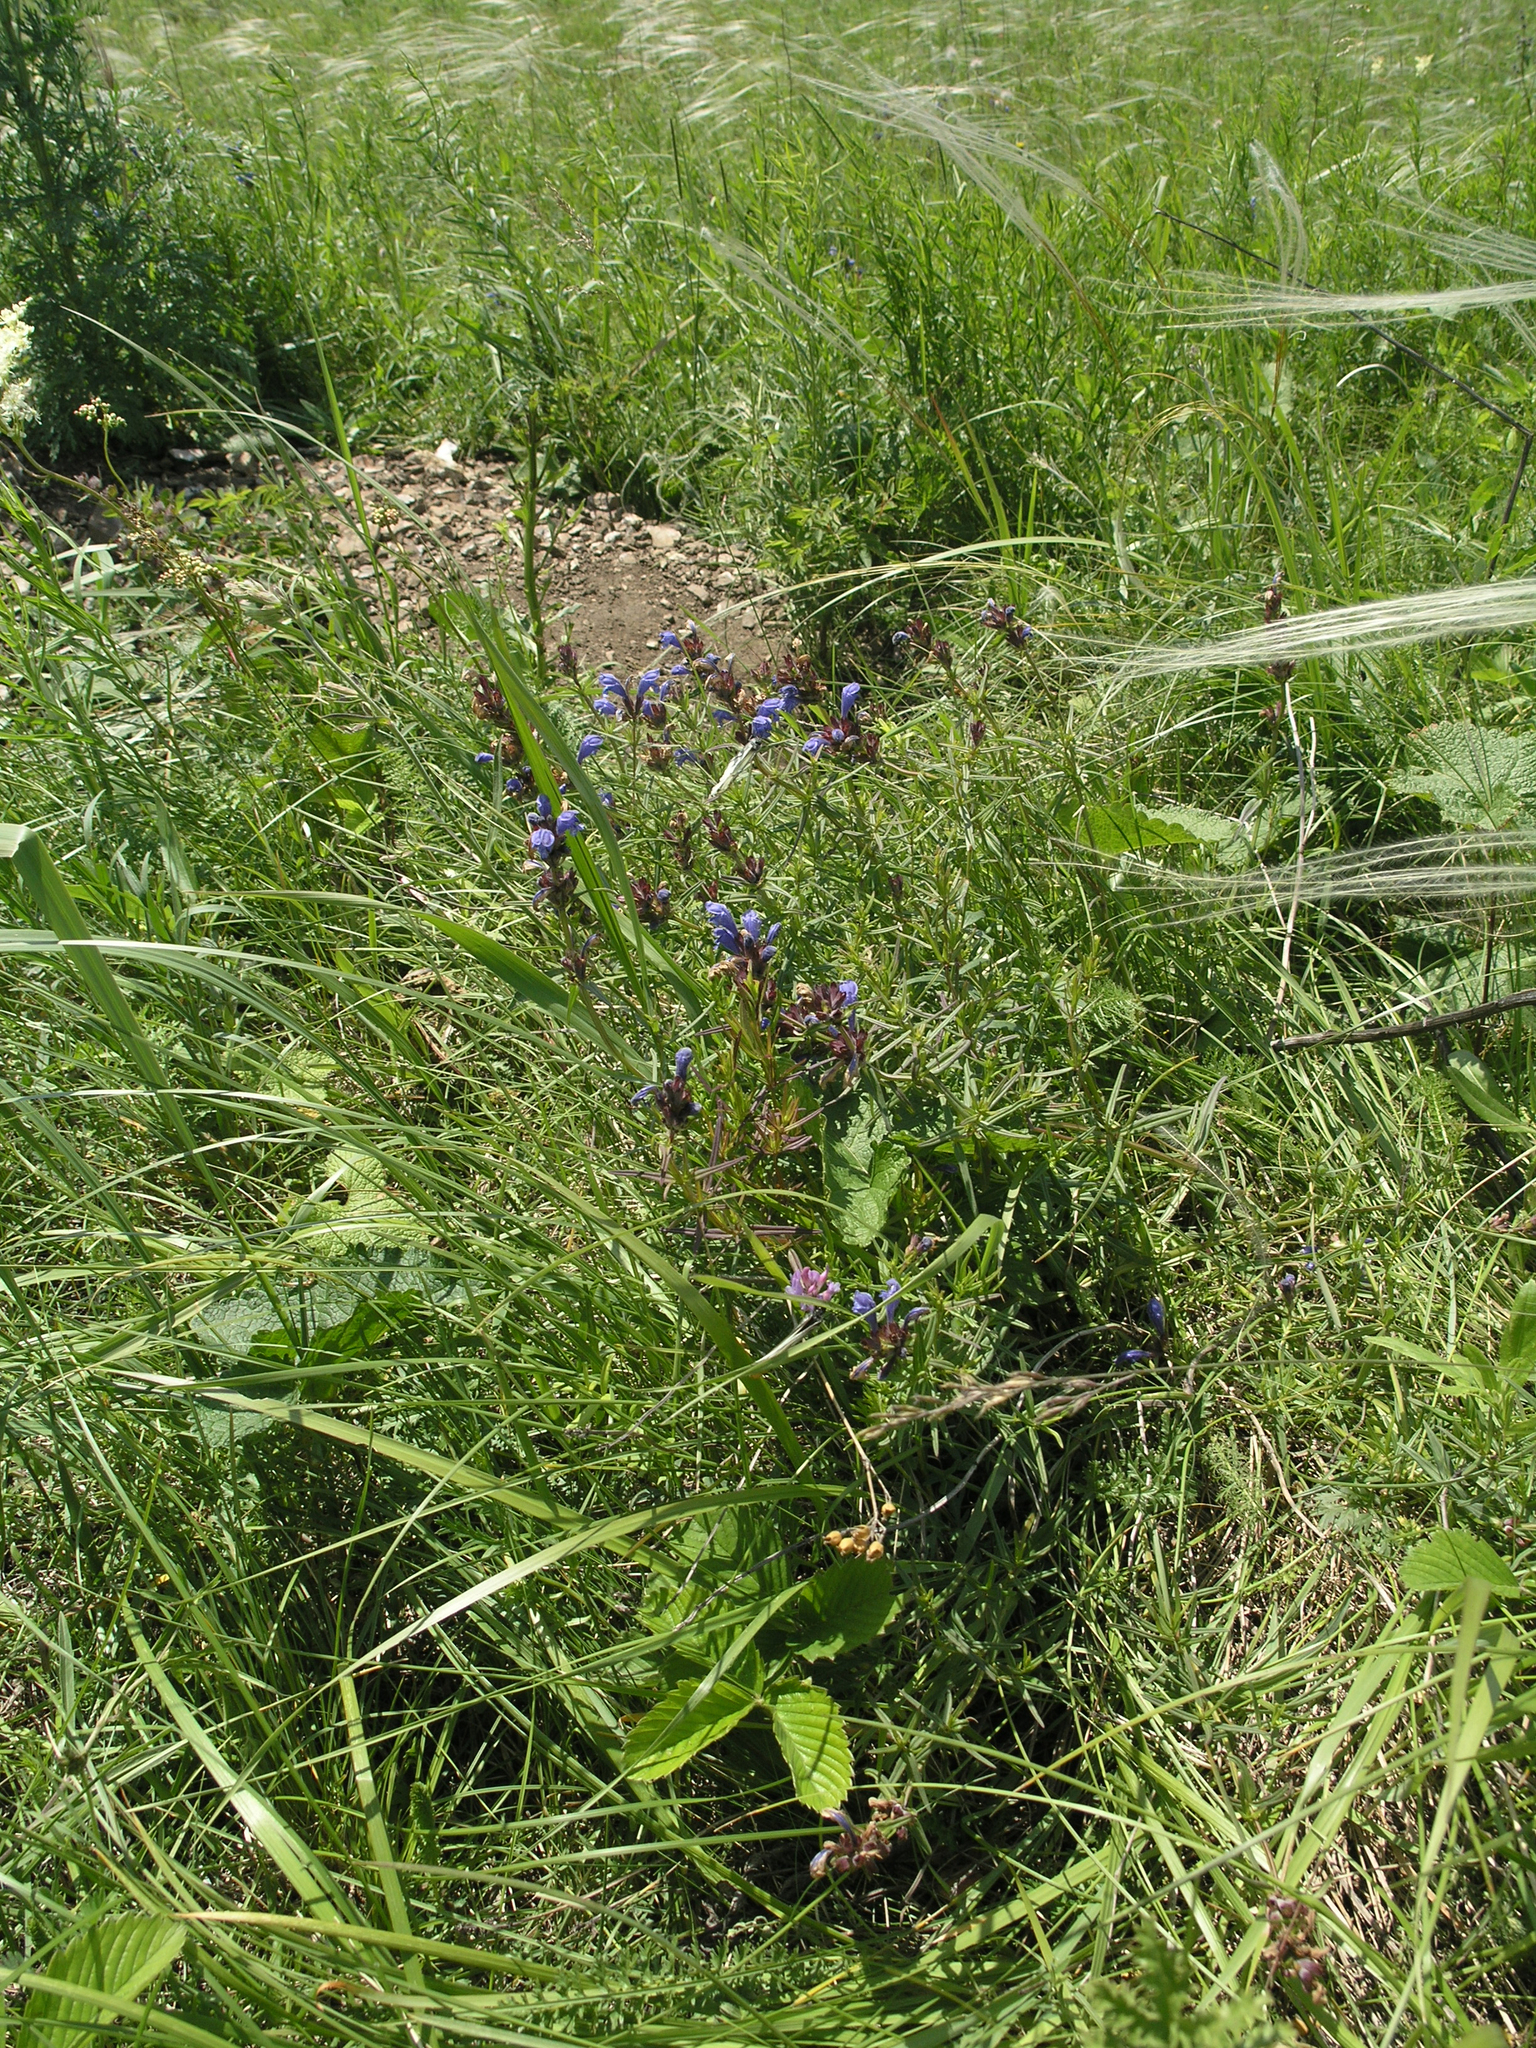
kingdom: Animalia
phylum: Chordata
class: Mammalia
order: Rodentia
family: Sciuridae
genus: Marmota
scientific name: Marmota kastschenkoi
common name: Forest steppe marmot
